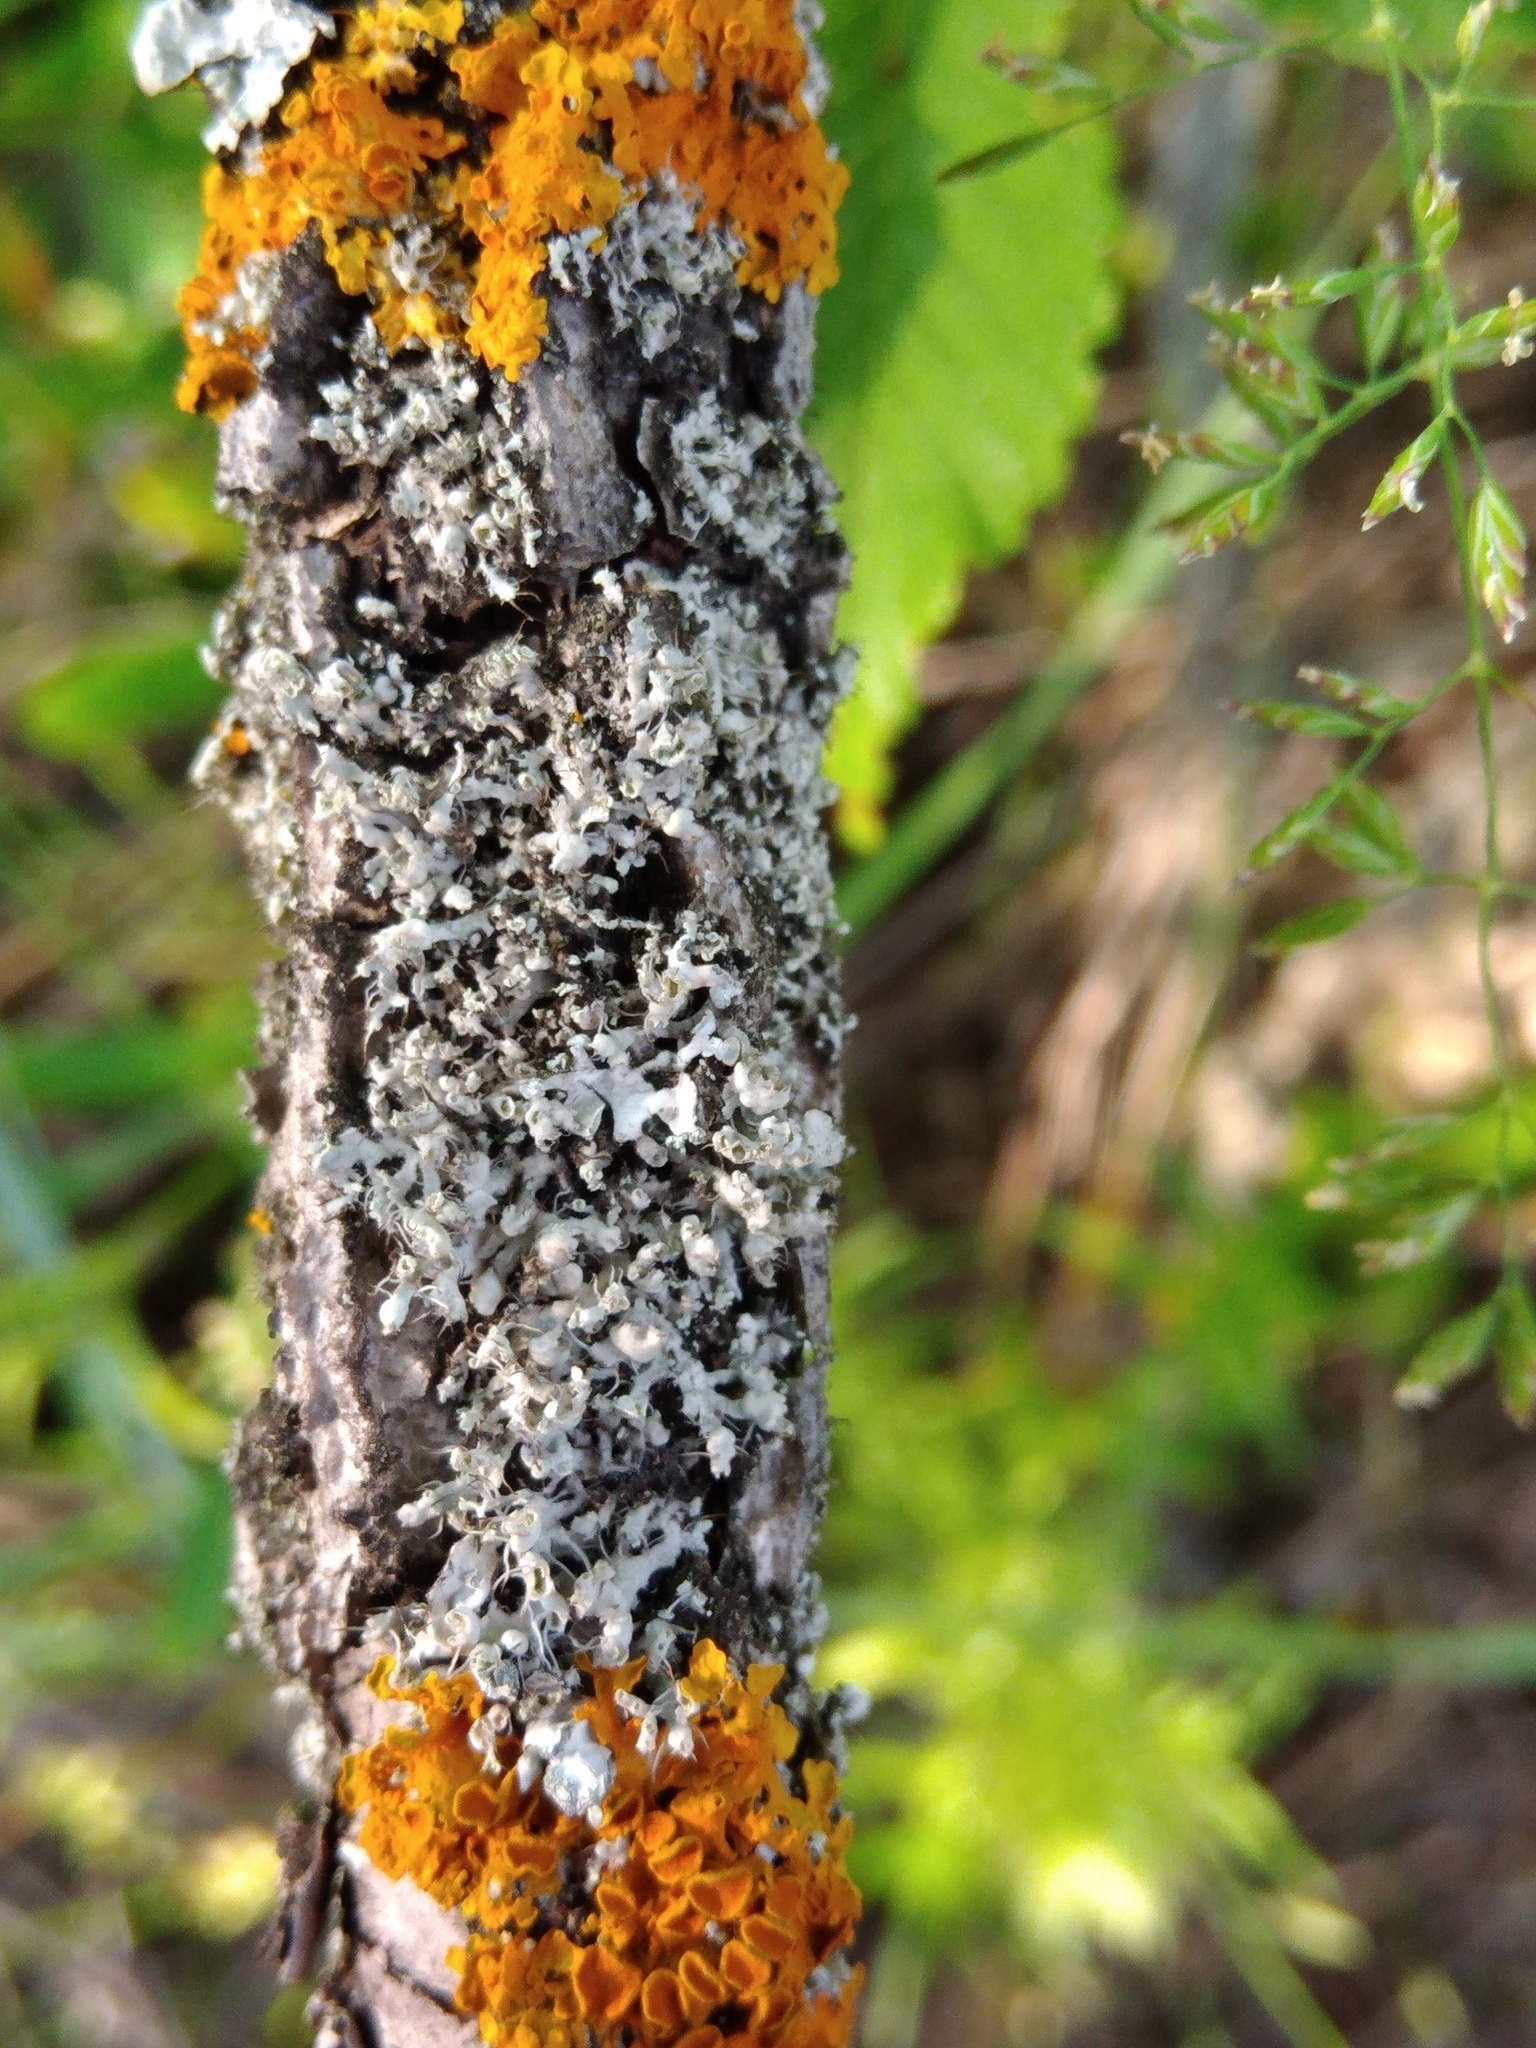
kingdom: Fungi
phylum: Ascomycota
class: Lecanoromycetes
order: Caliciales
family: Physciaceae
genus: Physcia
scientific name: Physcia adscendens
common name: Hooded rosette lichen
